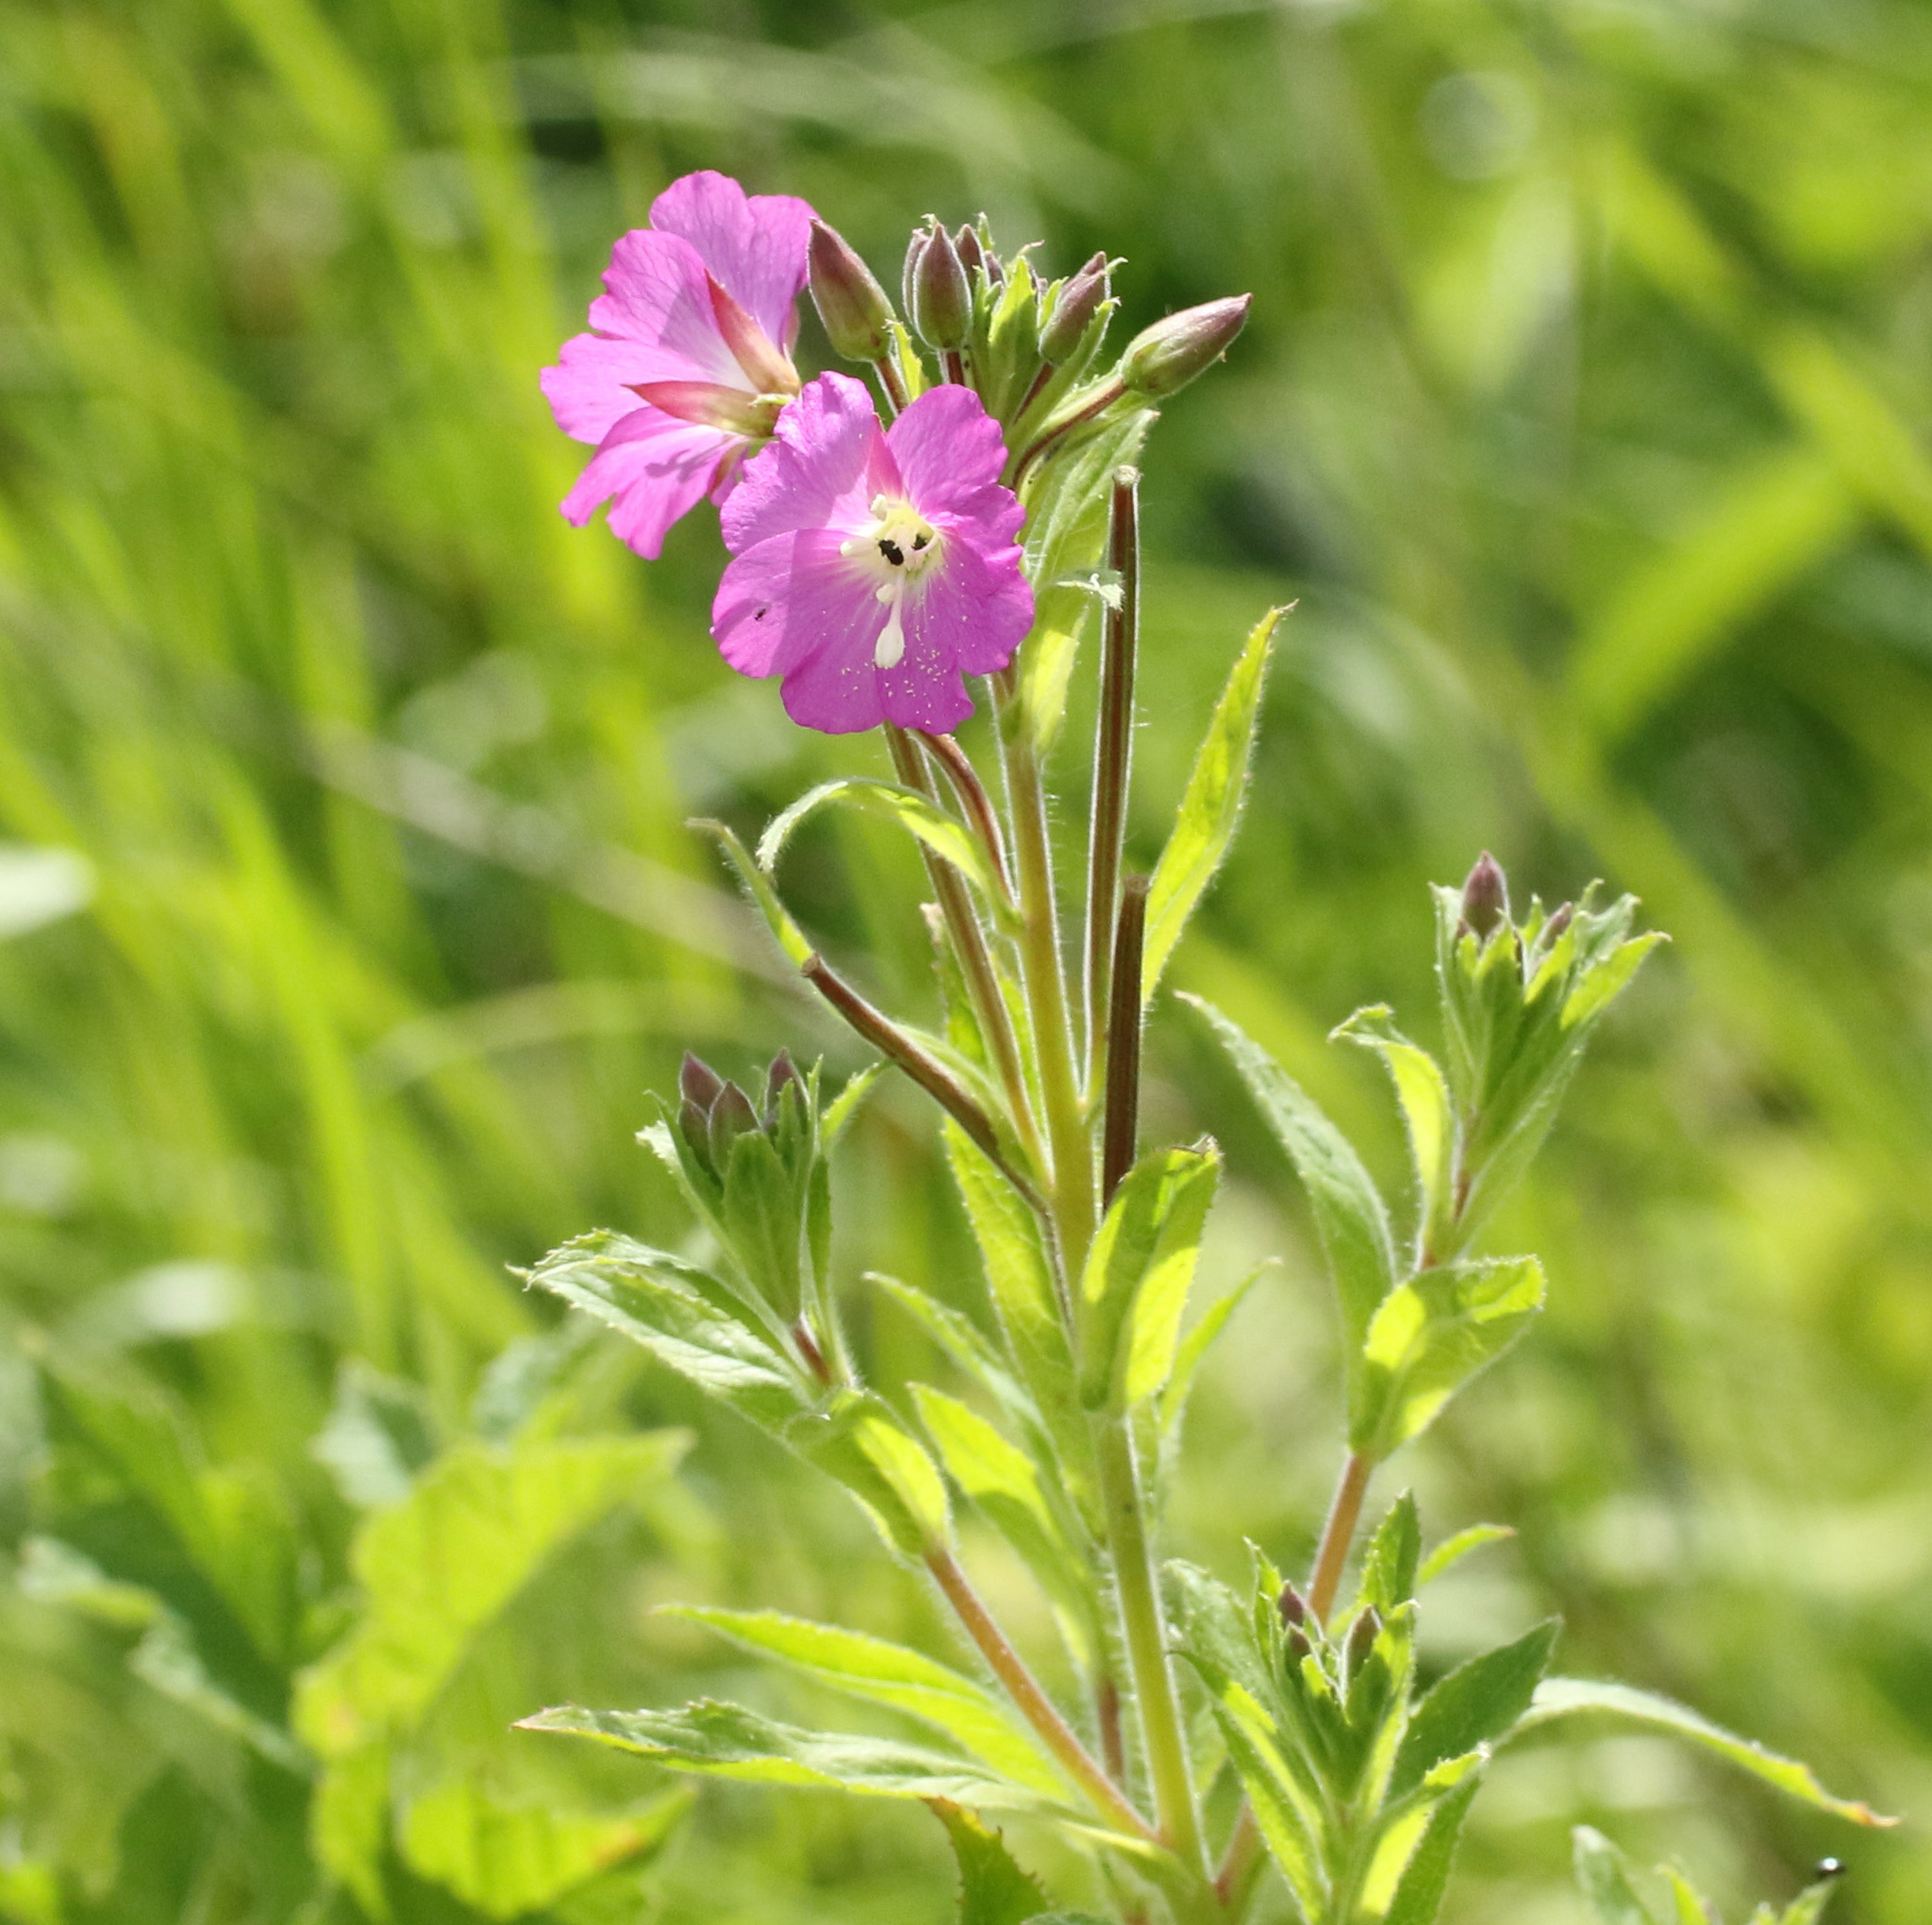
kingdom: Plantae
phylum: Tracheophyta
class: Magnoliopsida
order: Myrtales
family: Onagraceae
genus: Epilobium
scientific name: Epilobium hirsutum
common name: Great willowherb
